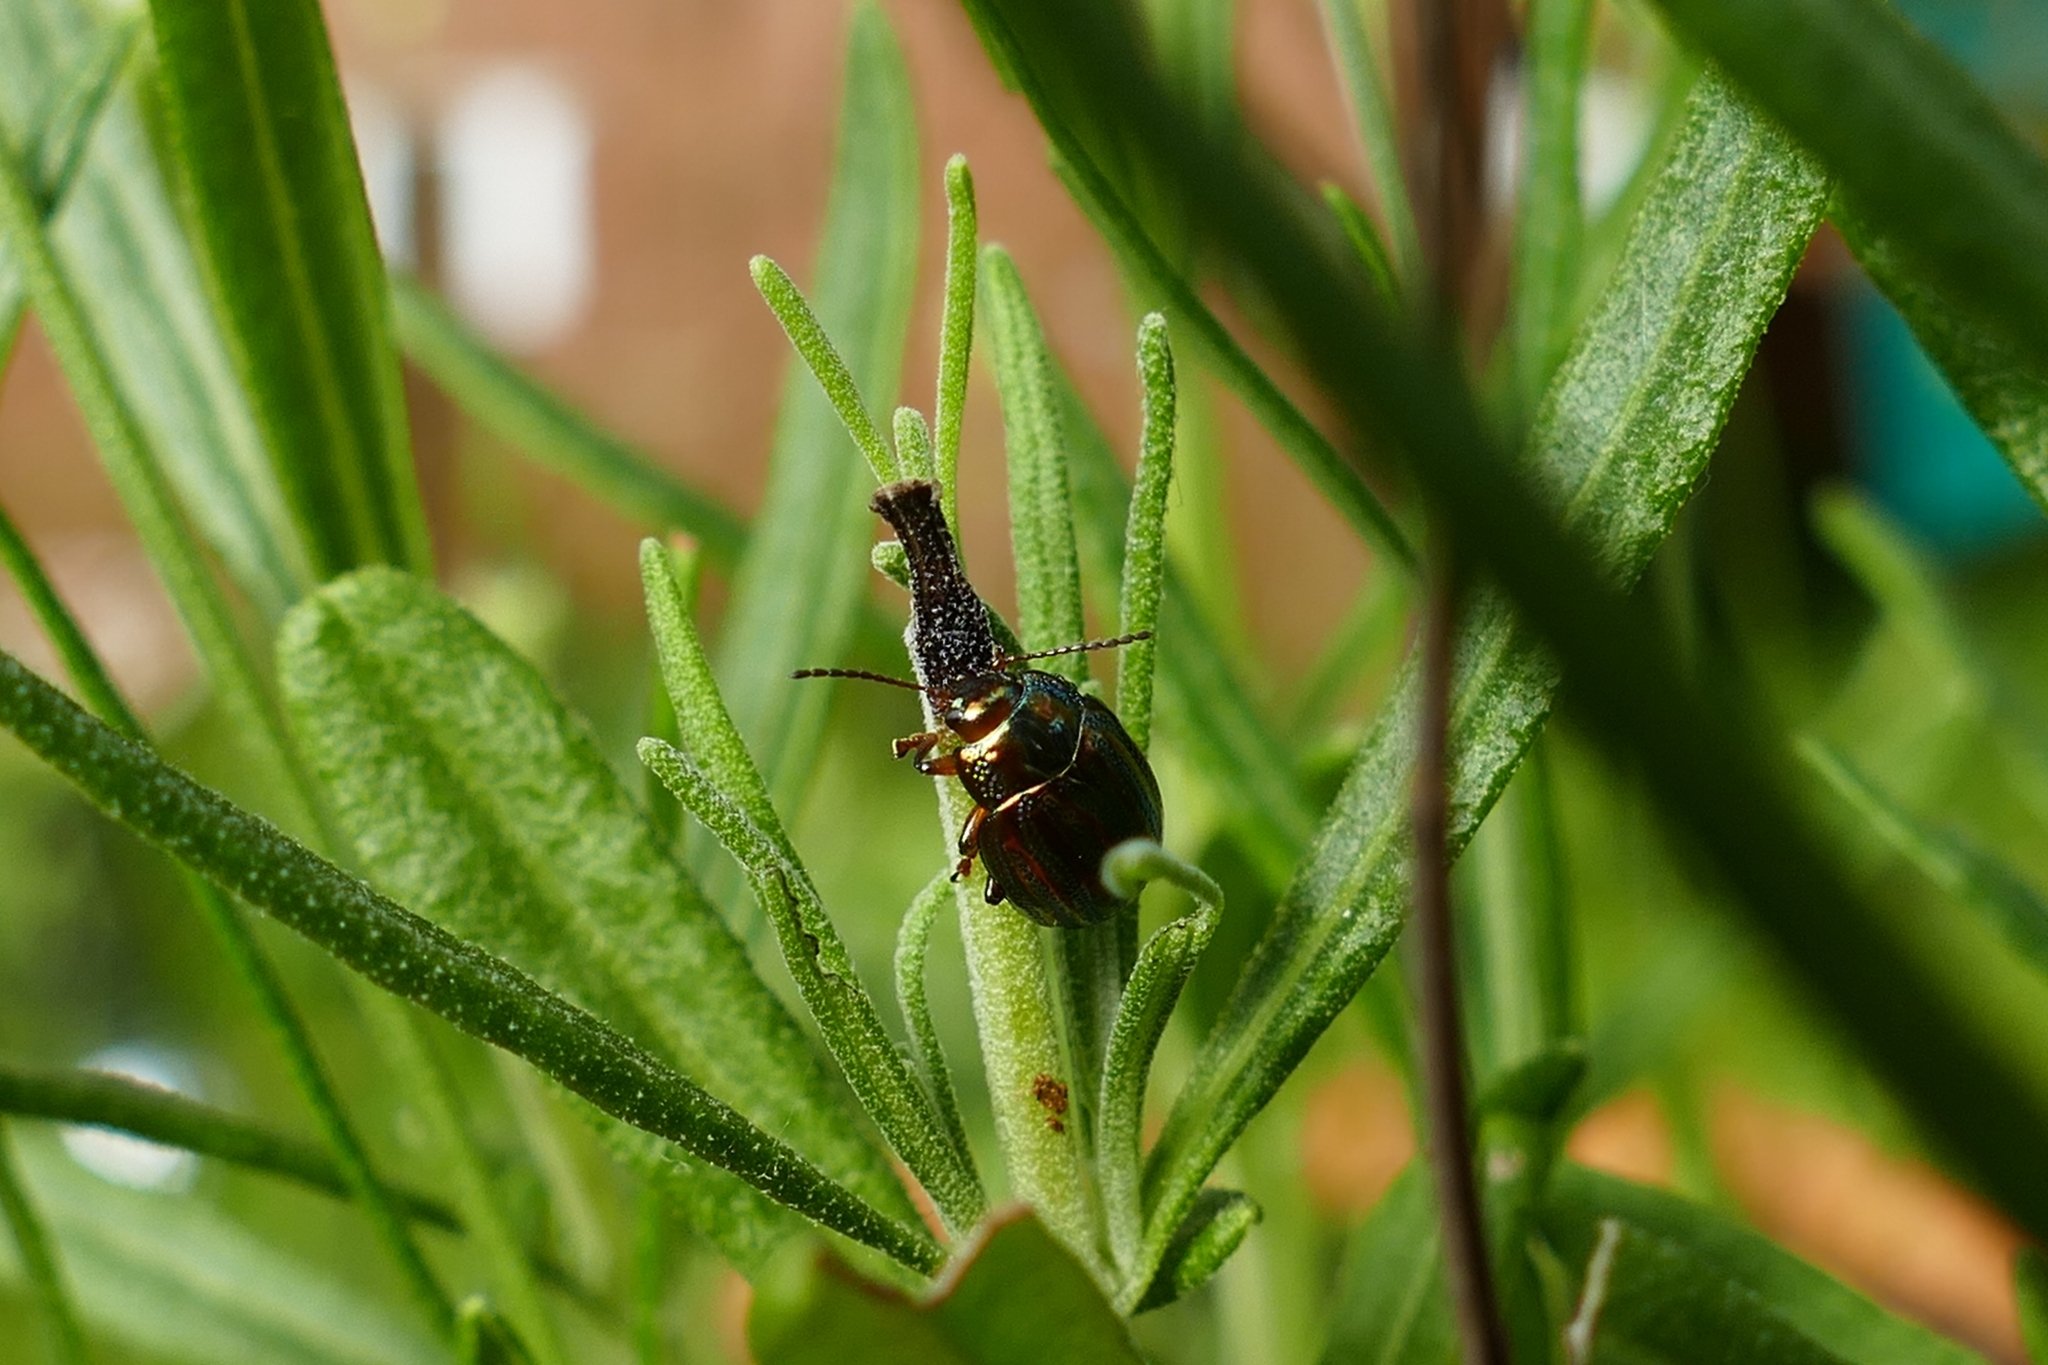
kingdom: Animalia
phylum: Arthropoda
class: Insecta
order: Coleoptera
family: Chrysomelidae
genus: Chrysolina
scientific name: Chrysolina americana
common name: Rosemary beetle
